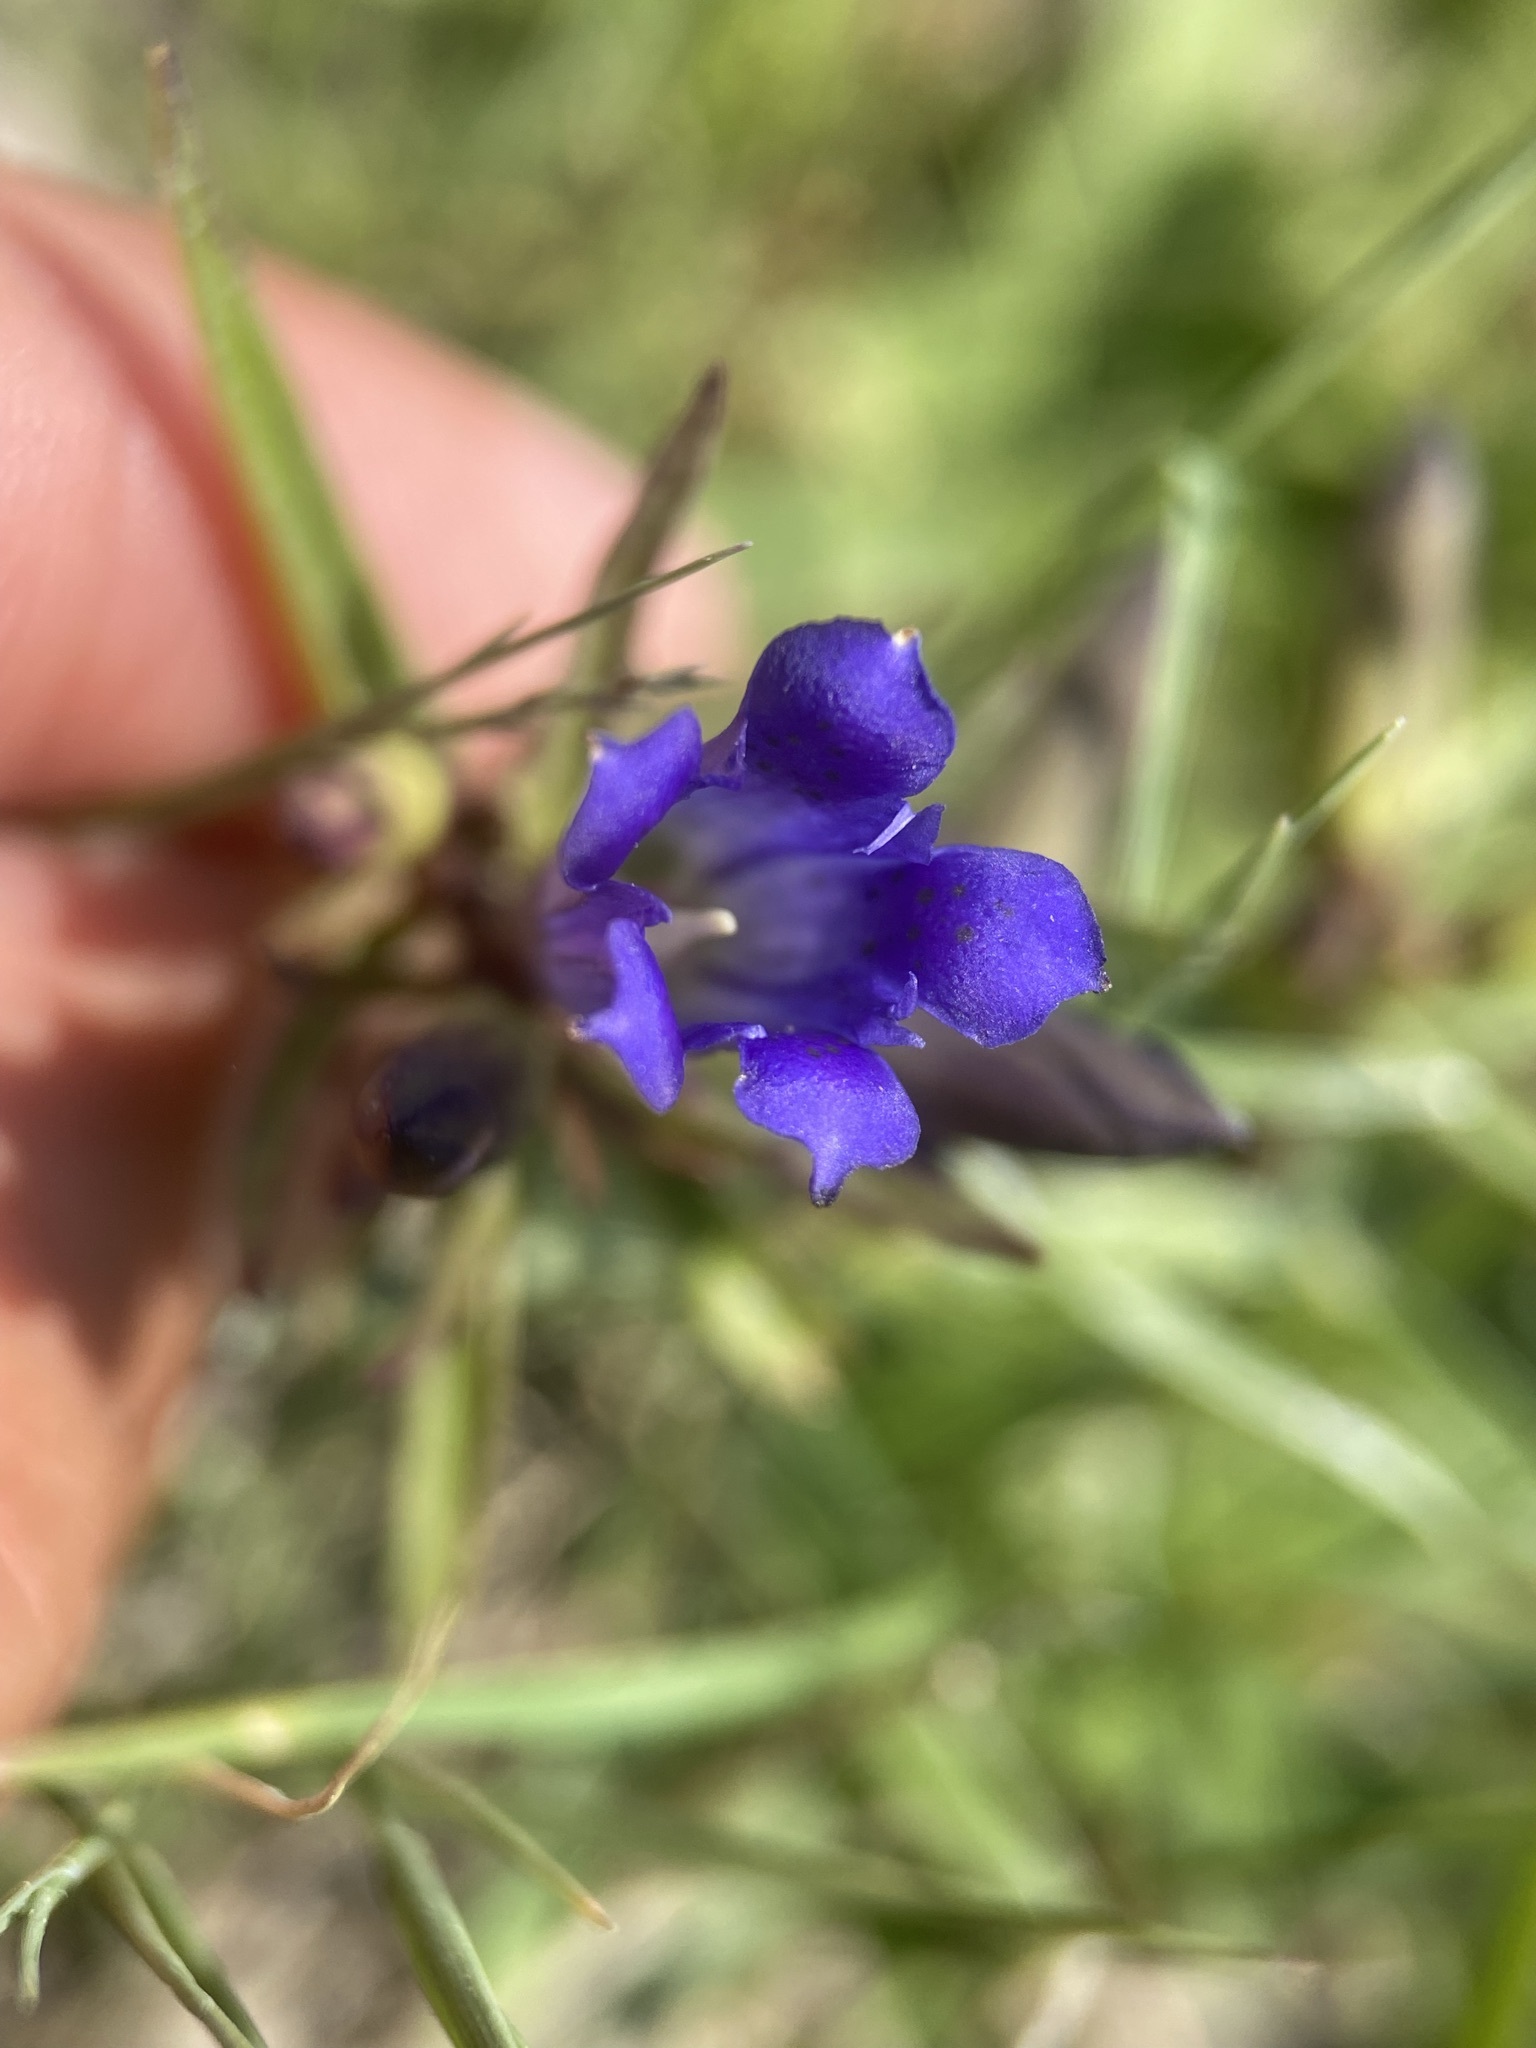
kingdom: Plantae
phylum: Tracheophyta
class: Magnoliopsida
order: Gentianales
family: Gentianaceae
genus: Gentiana
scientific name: Gentiana affinis
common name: Rocky mountain gentian
